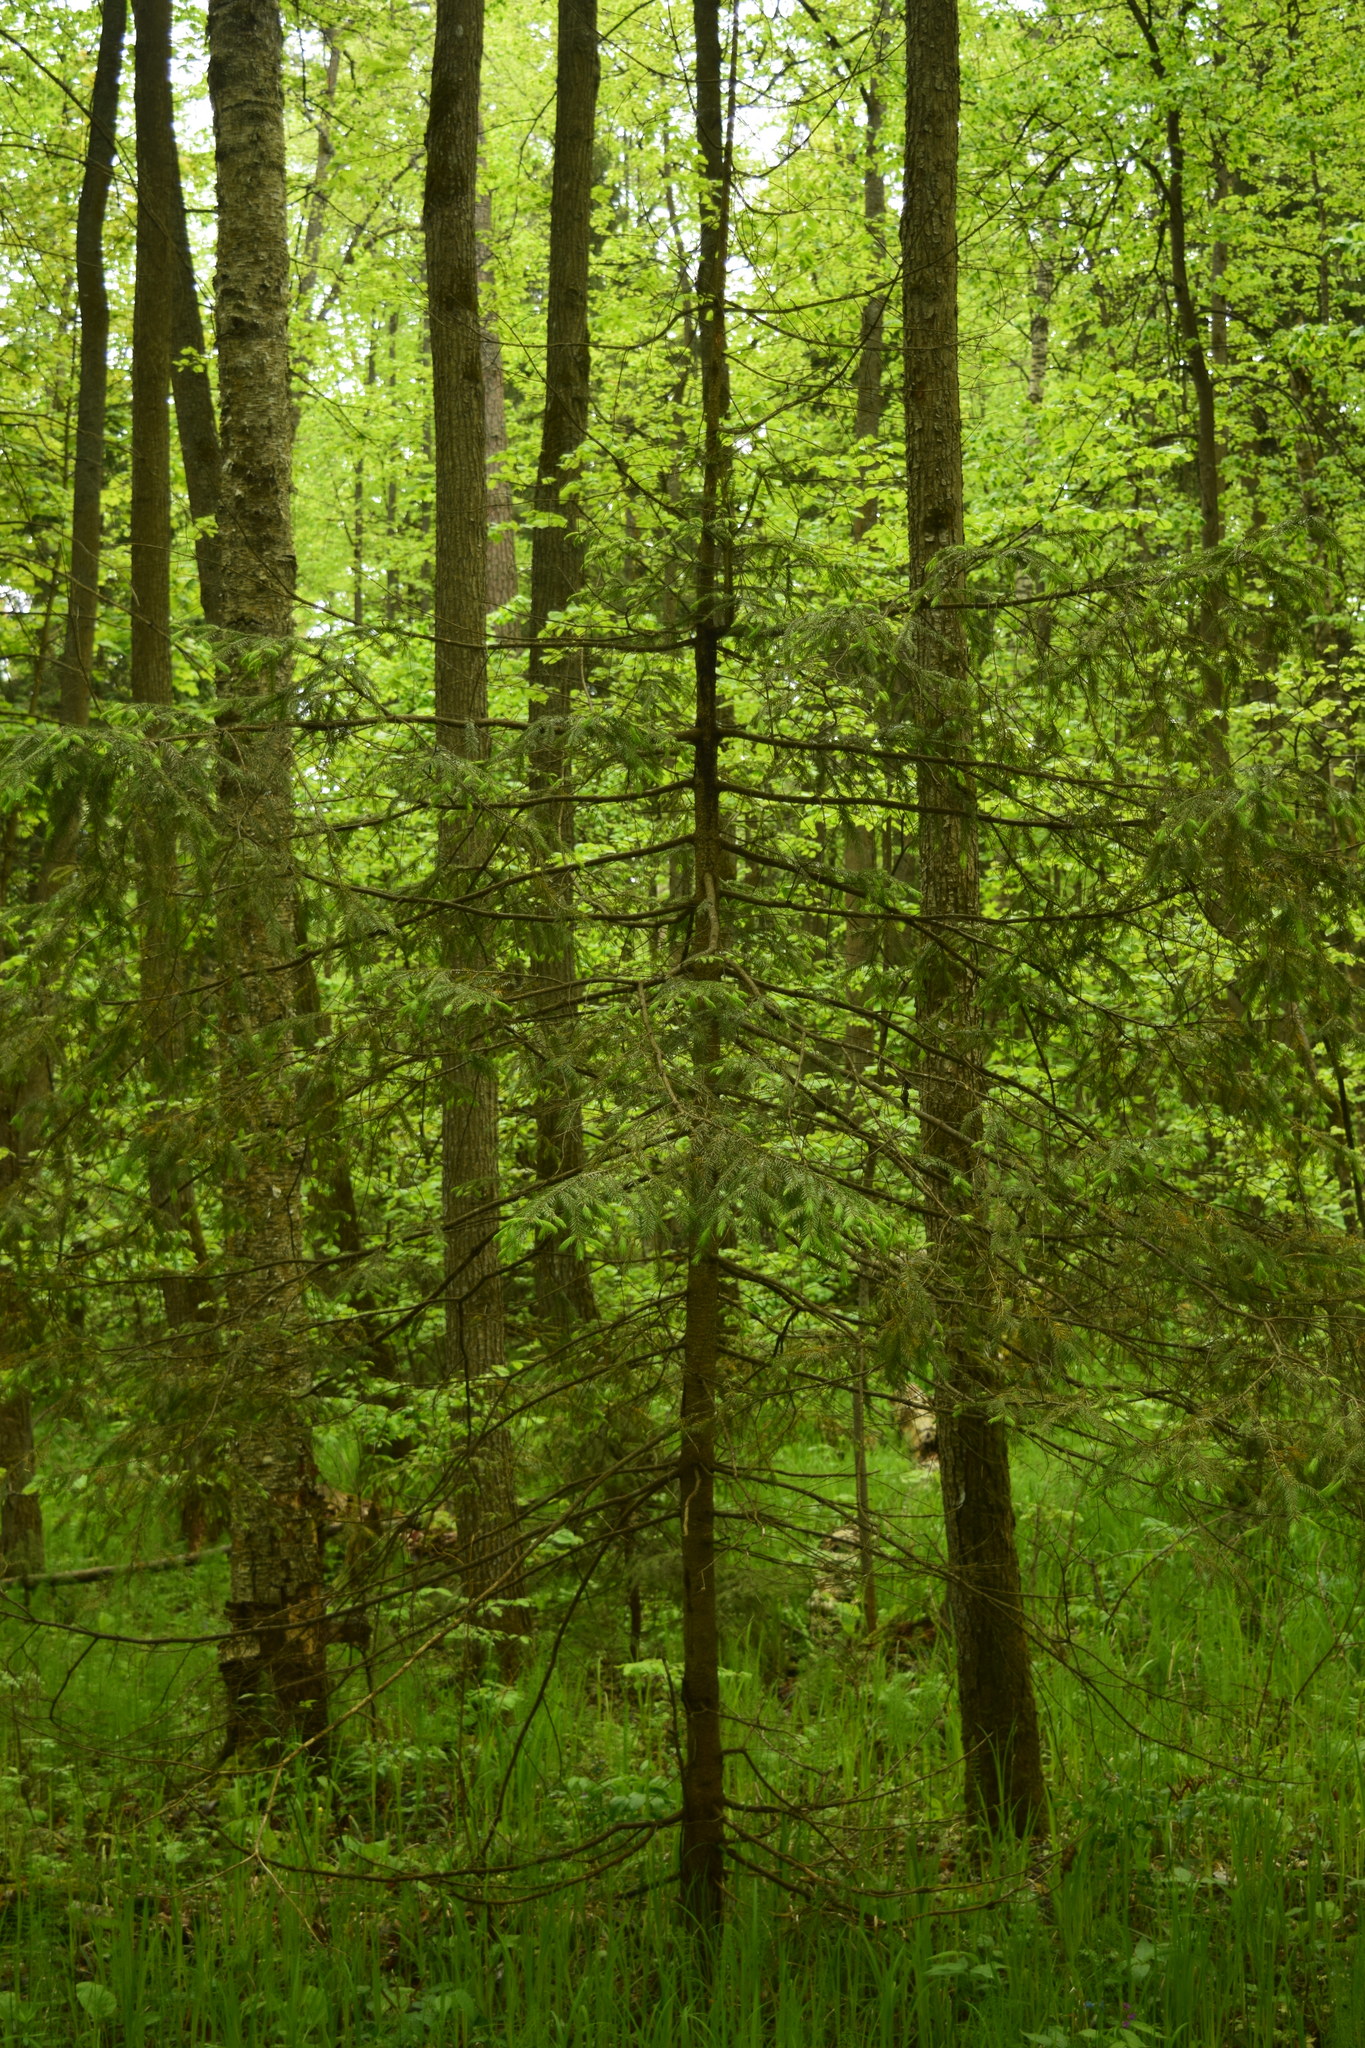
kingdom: Plantae
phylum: Tracheophyta
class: Pinopsida
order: Pinales
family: Pinaceae
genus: Picea
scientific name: Picea abies
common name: Norway spruce
